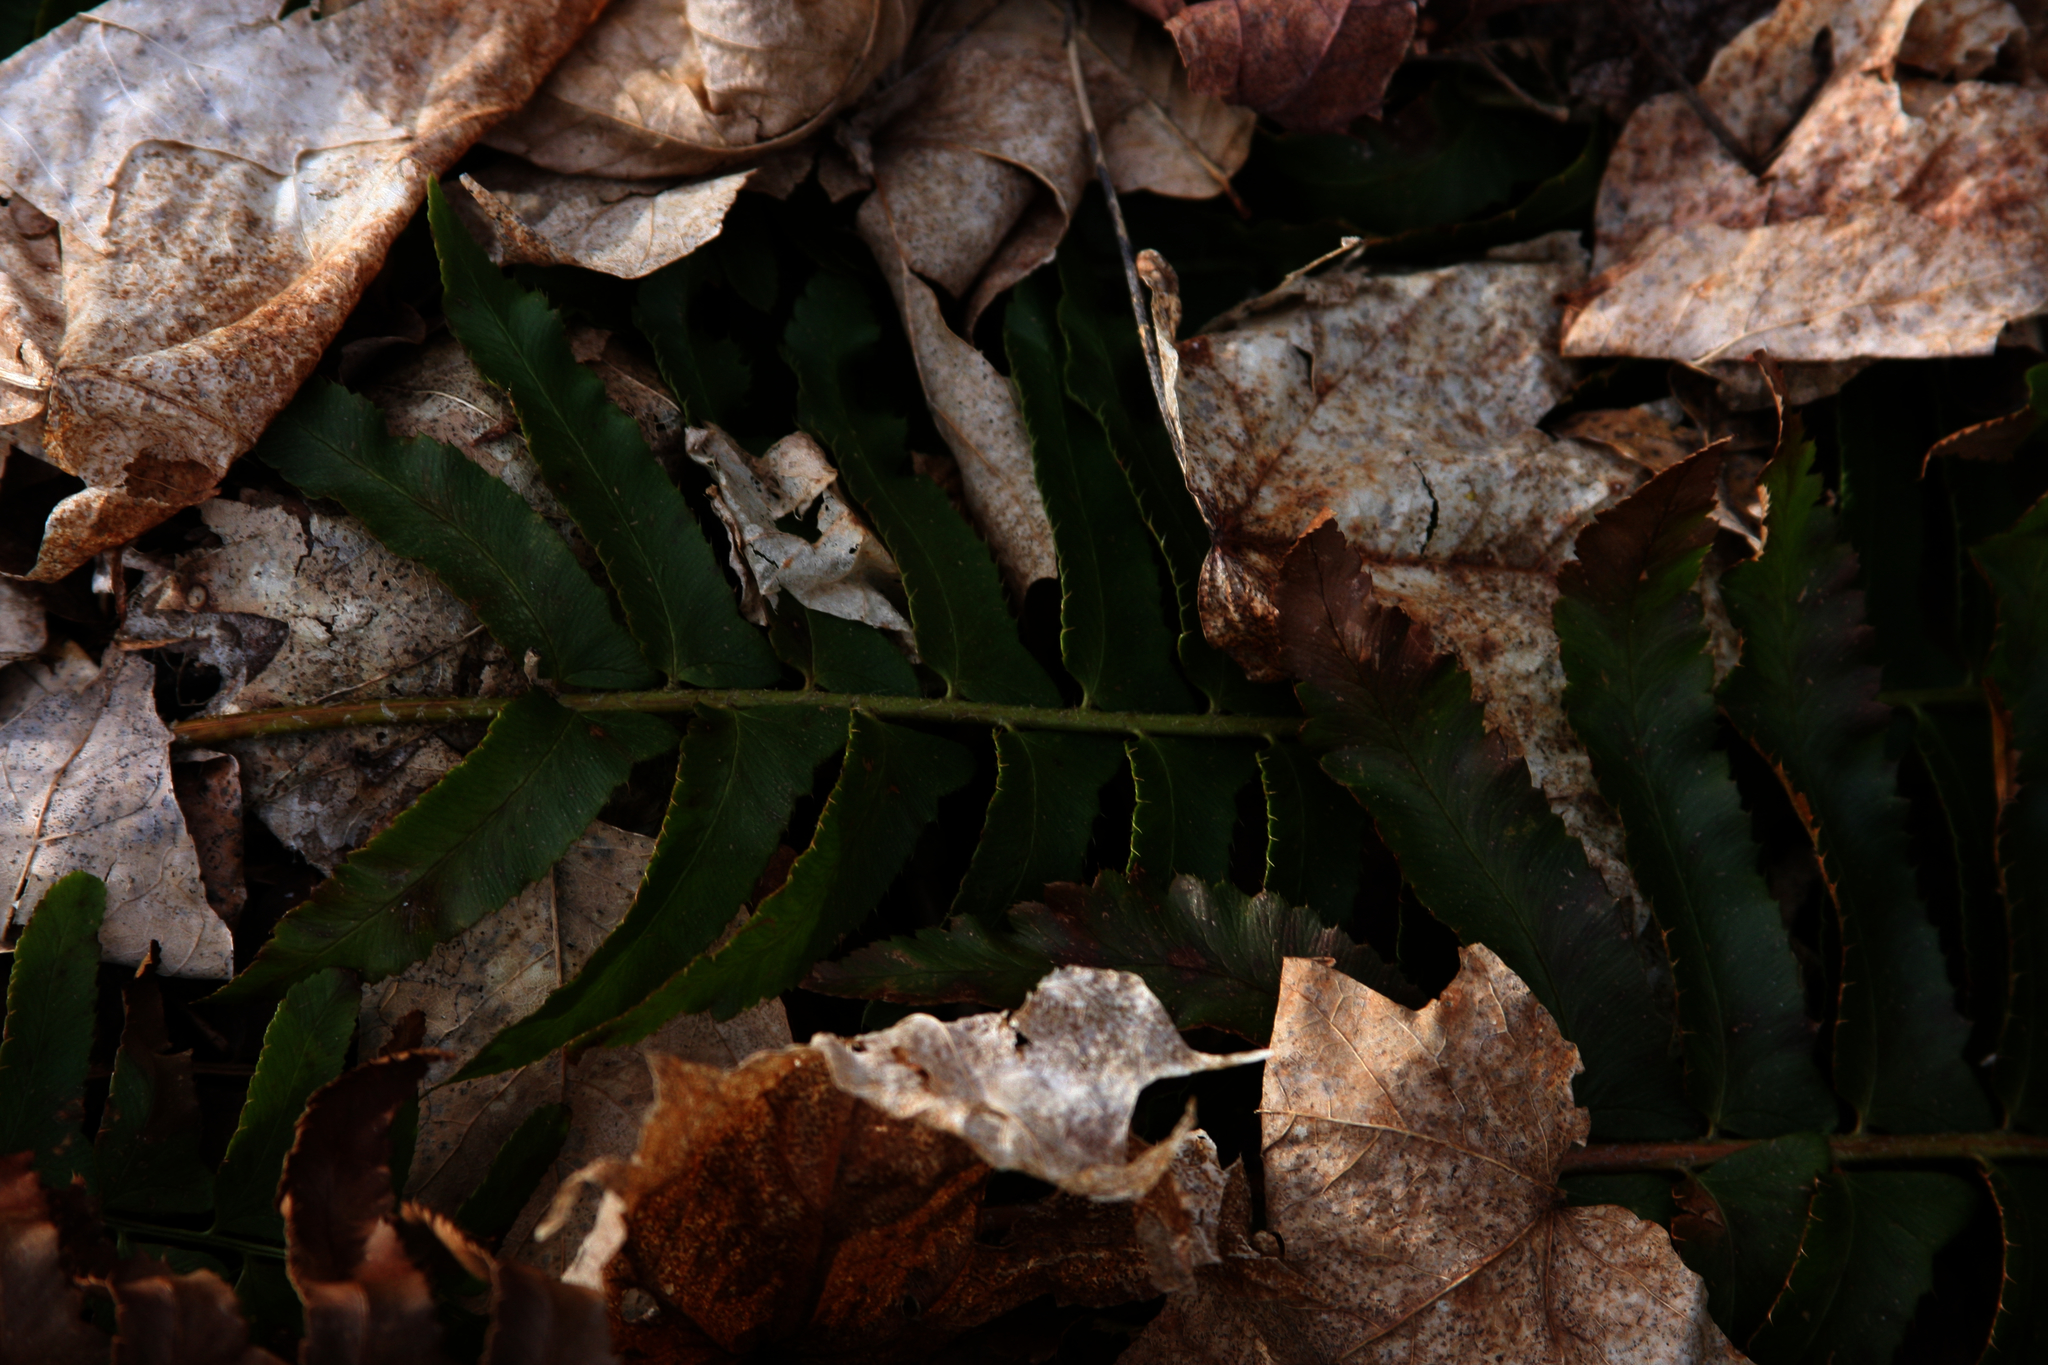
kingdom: Plantae
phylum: Tracheophyta
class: Polypodiopsida
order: Polypodiales
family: Dryopteridaceae
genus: Polystichum
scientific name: Polystichum acrostichoides
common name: Christmas fern
